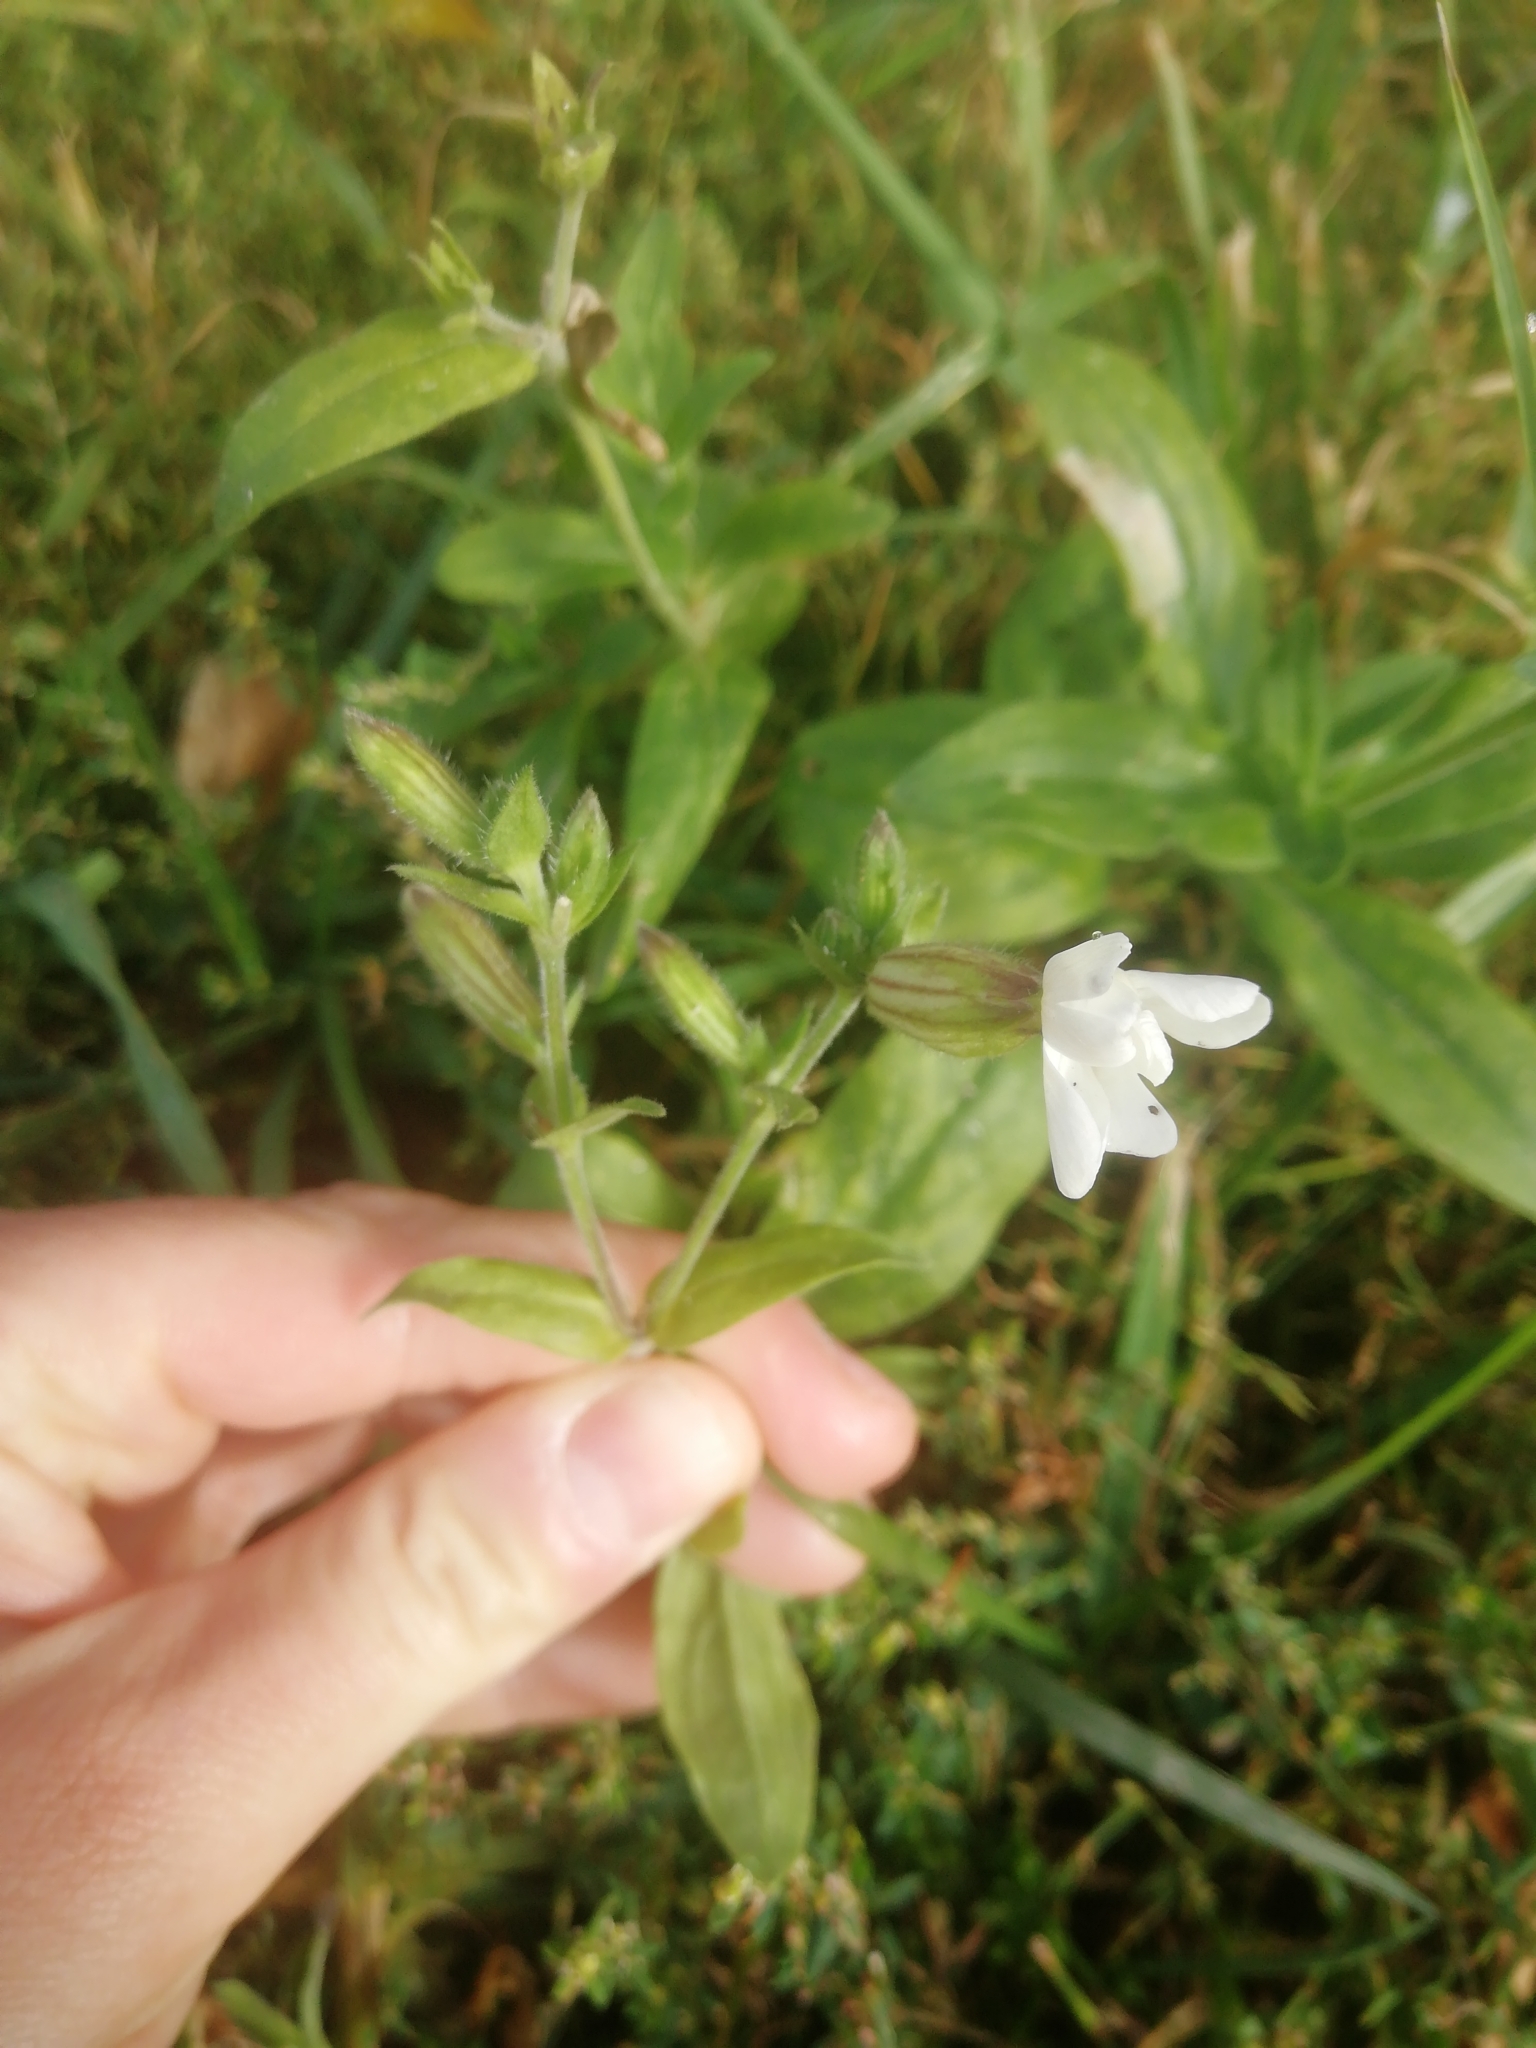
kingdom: Plantae
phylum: Tracheophyta
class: Magnoliopsida
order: Caryophyllales
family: Caryophyllaceae
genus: Silene
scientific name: Silene latifolia
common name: White campion
